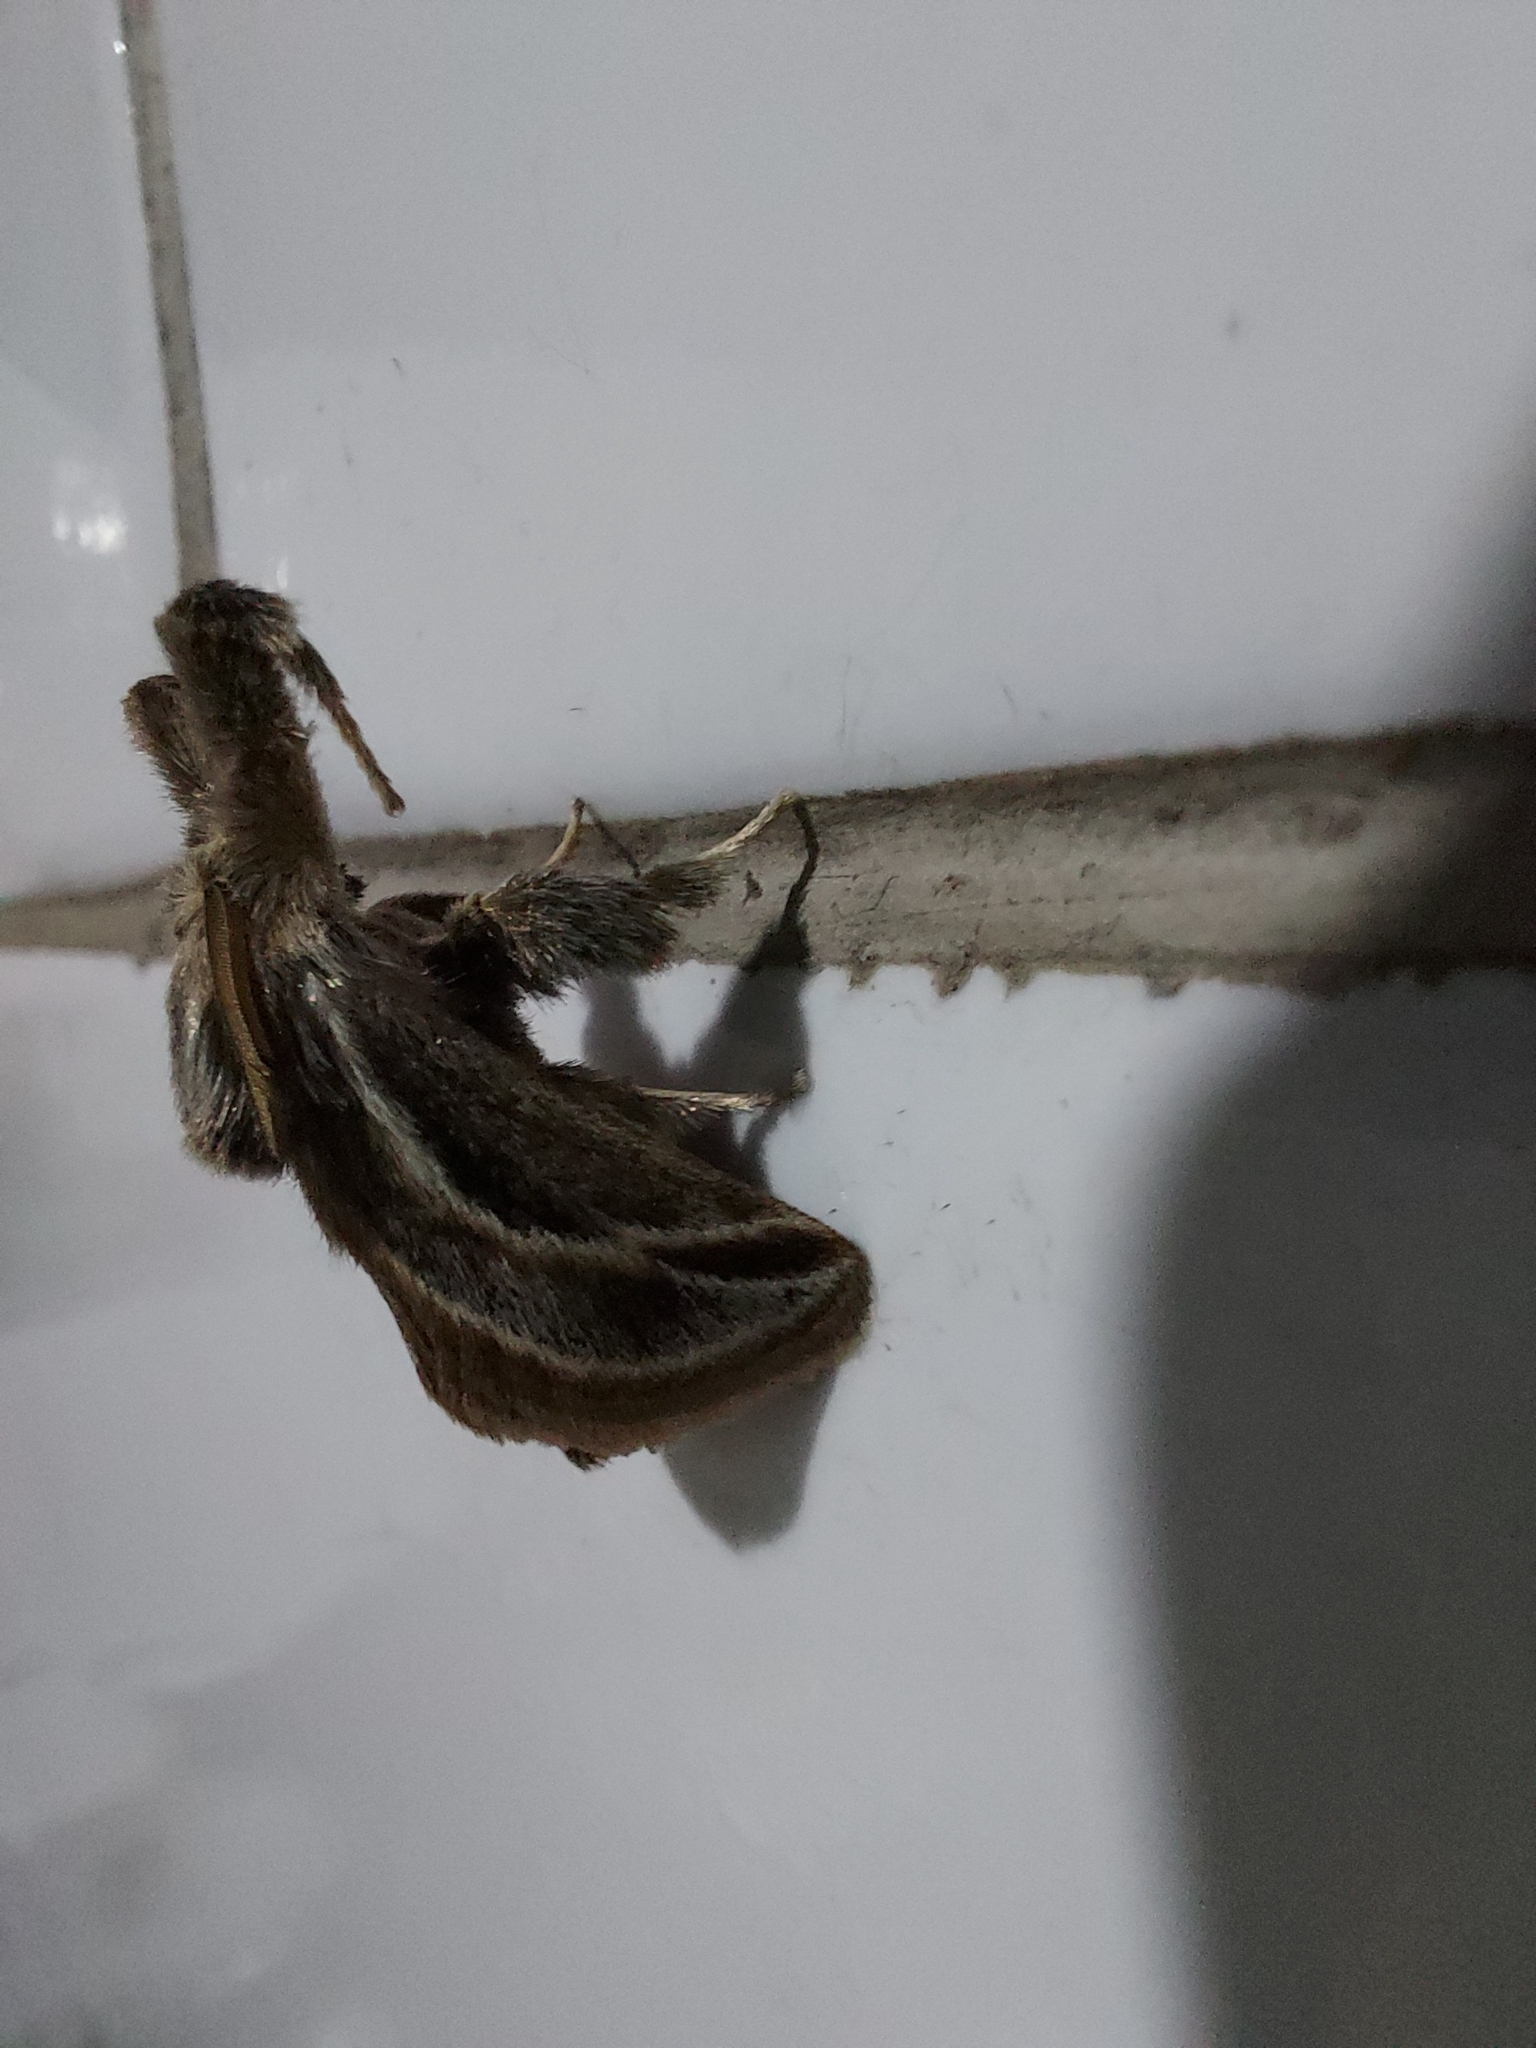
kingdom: Animalia
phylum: Arthropoda
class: Insecta
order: Lepidoptera
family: Limacodidae
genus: Perola
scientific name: Perola brumalis
